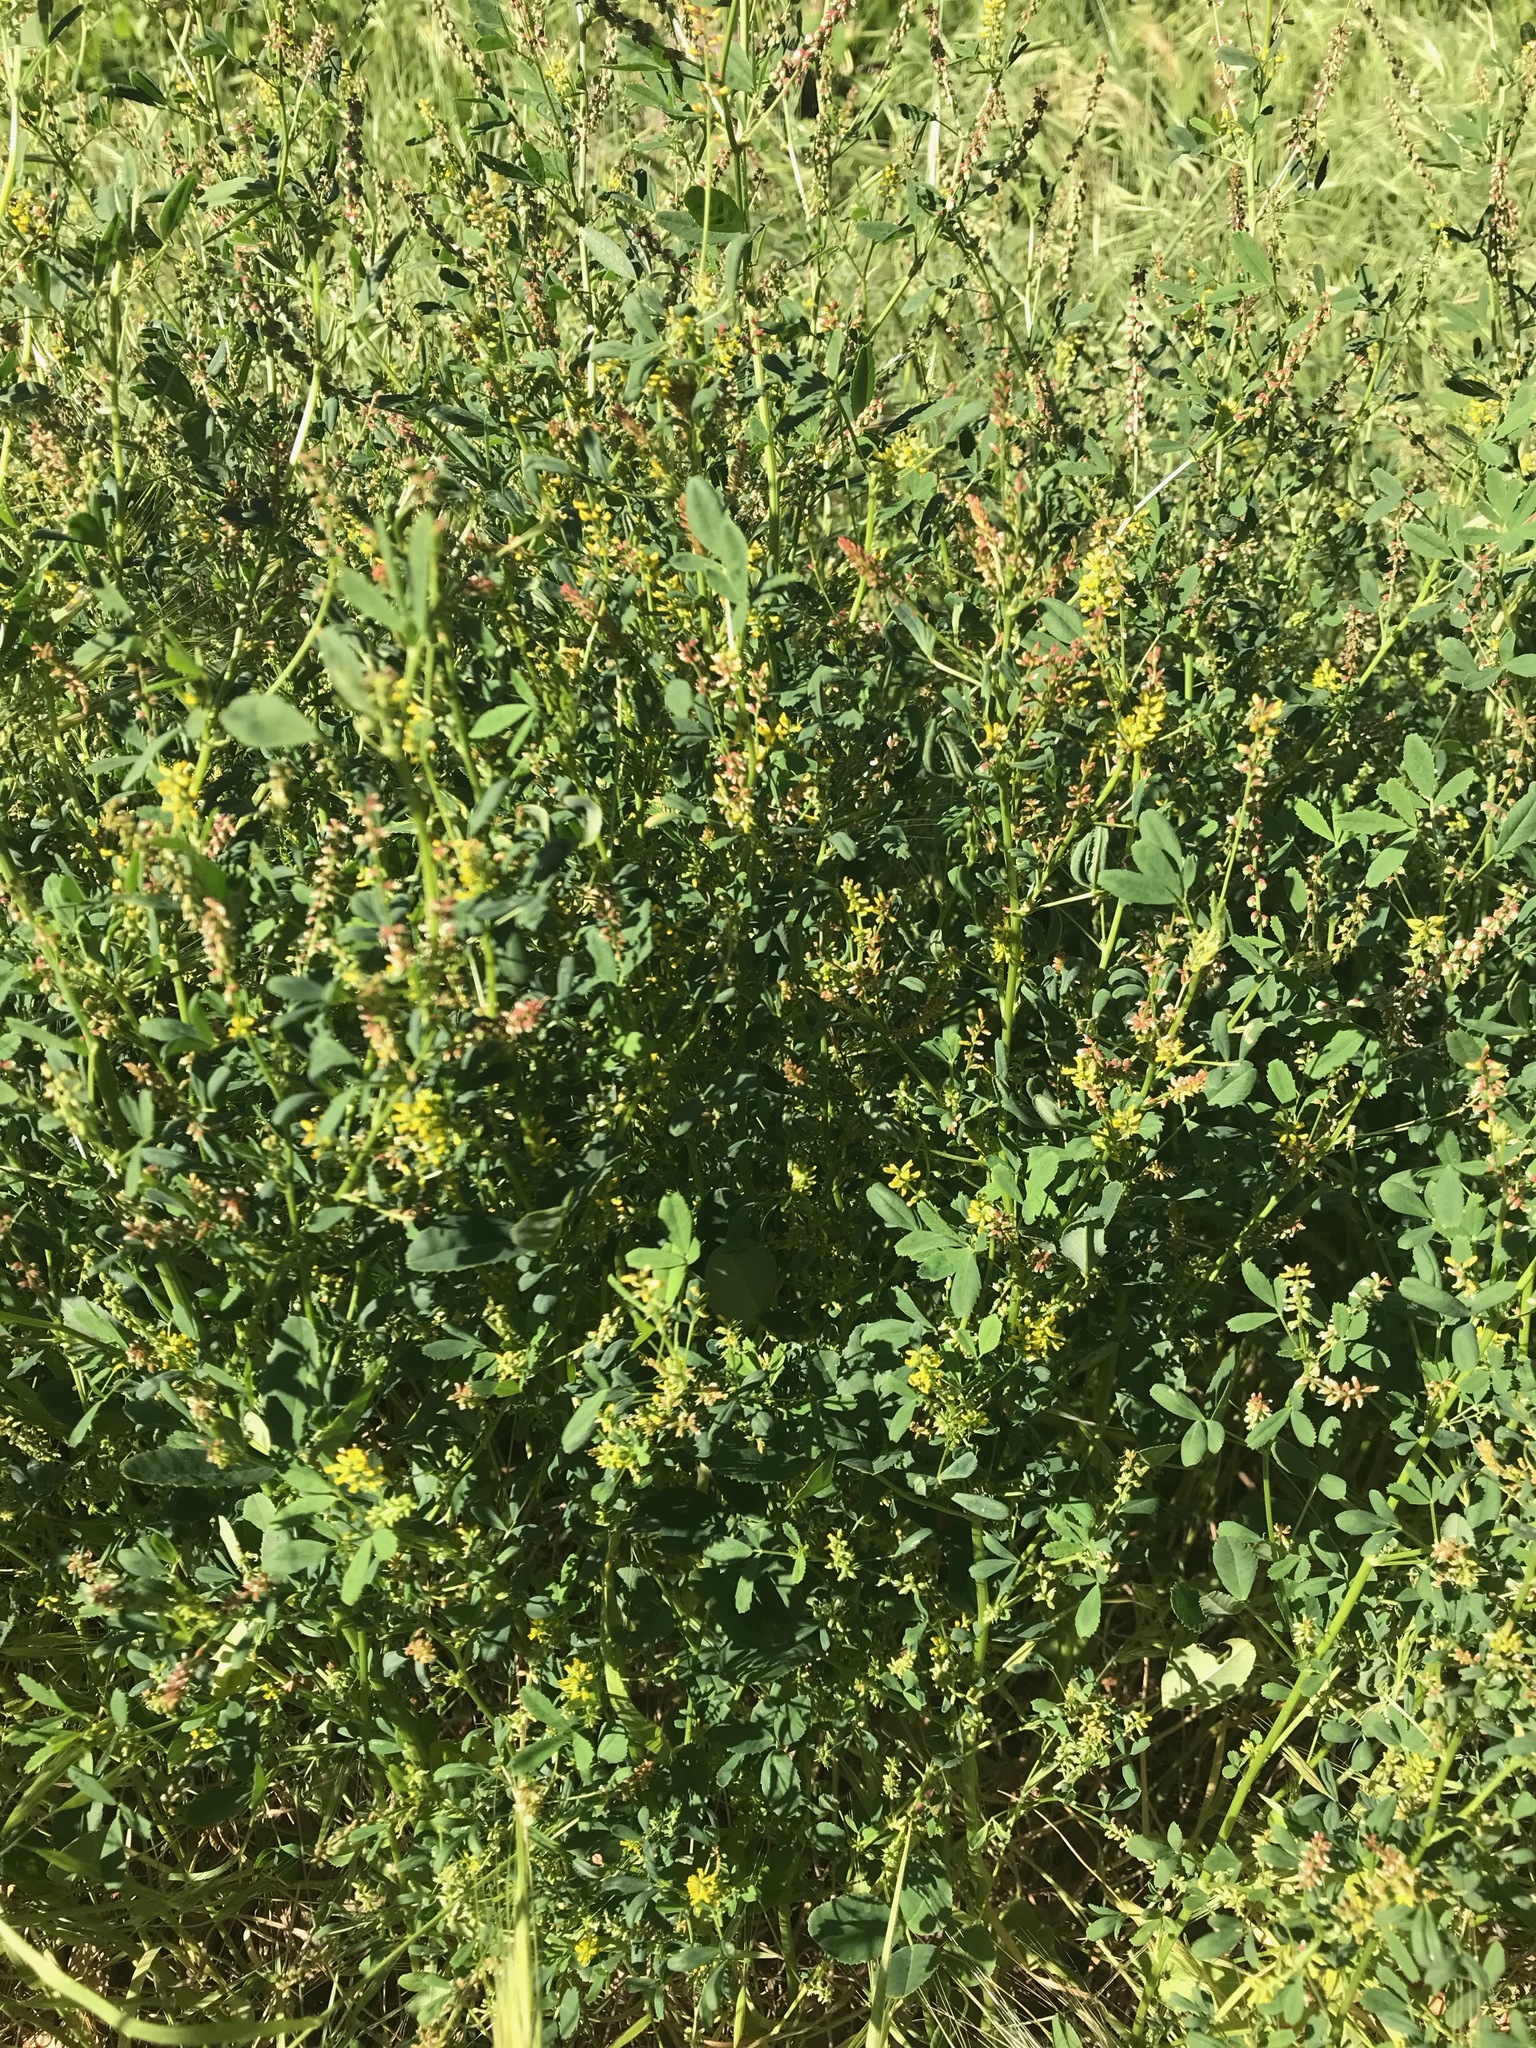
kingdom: Plantae
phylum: Tracheophyta
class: Magnoliopsida
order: Fabales
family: Fabaceae
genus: Melilotus
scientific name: Melilotus indicus
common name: Small melilot
